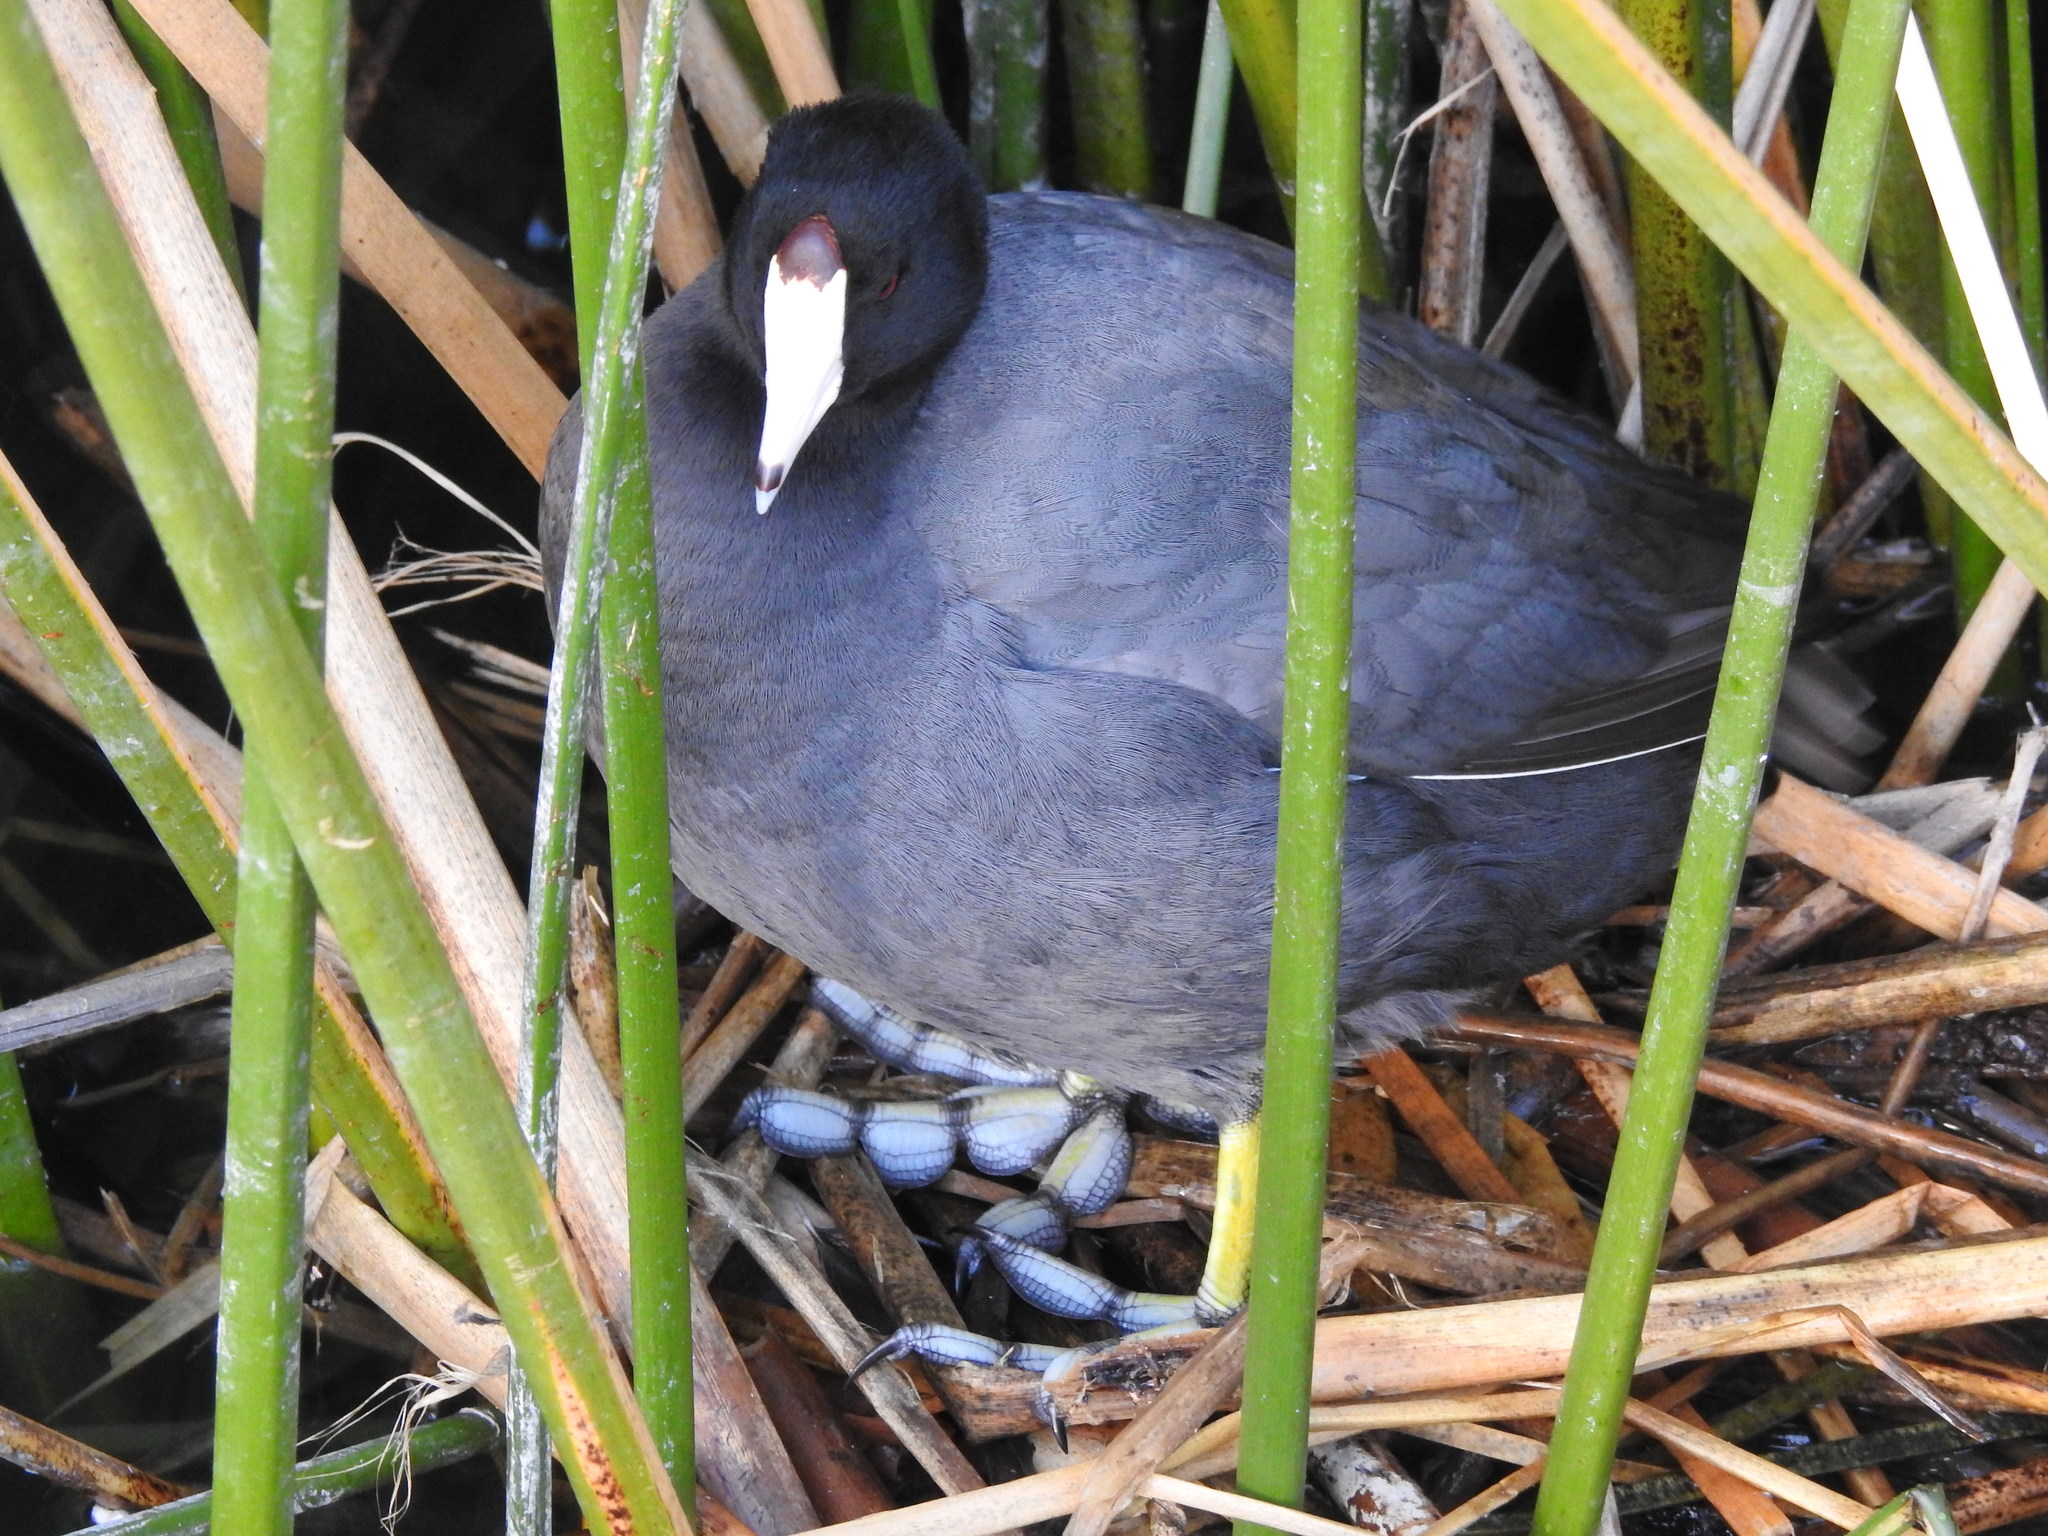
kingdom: Animalia
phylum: Chordata
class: Aves
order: Gruiformes
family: Rallidae
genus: Fulica
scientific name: Fulica americana
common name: American coot
